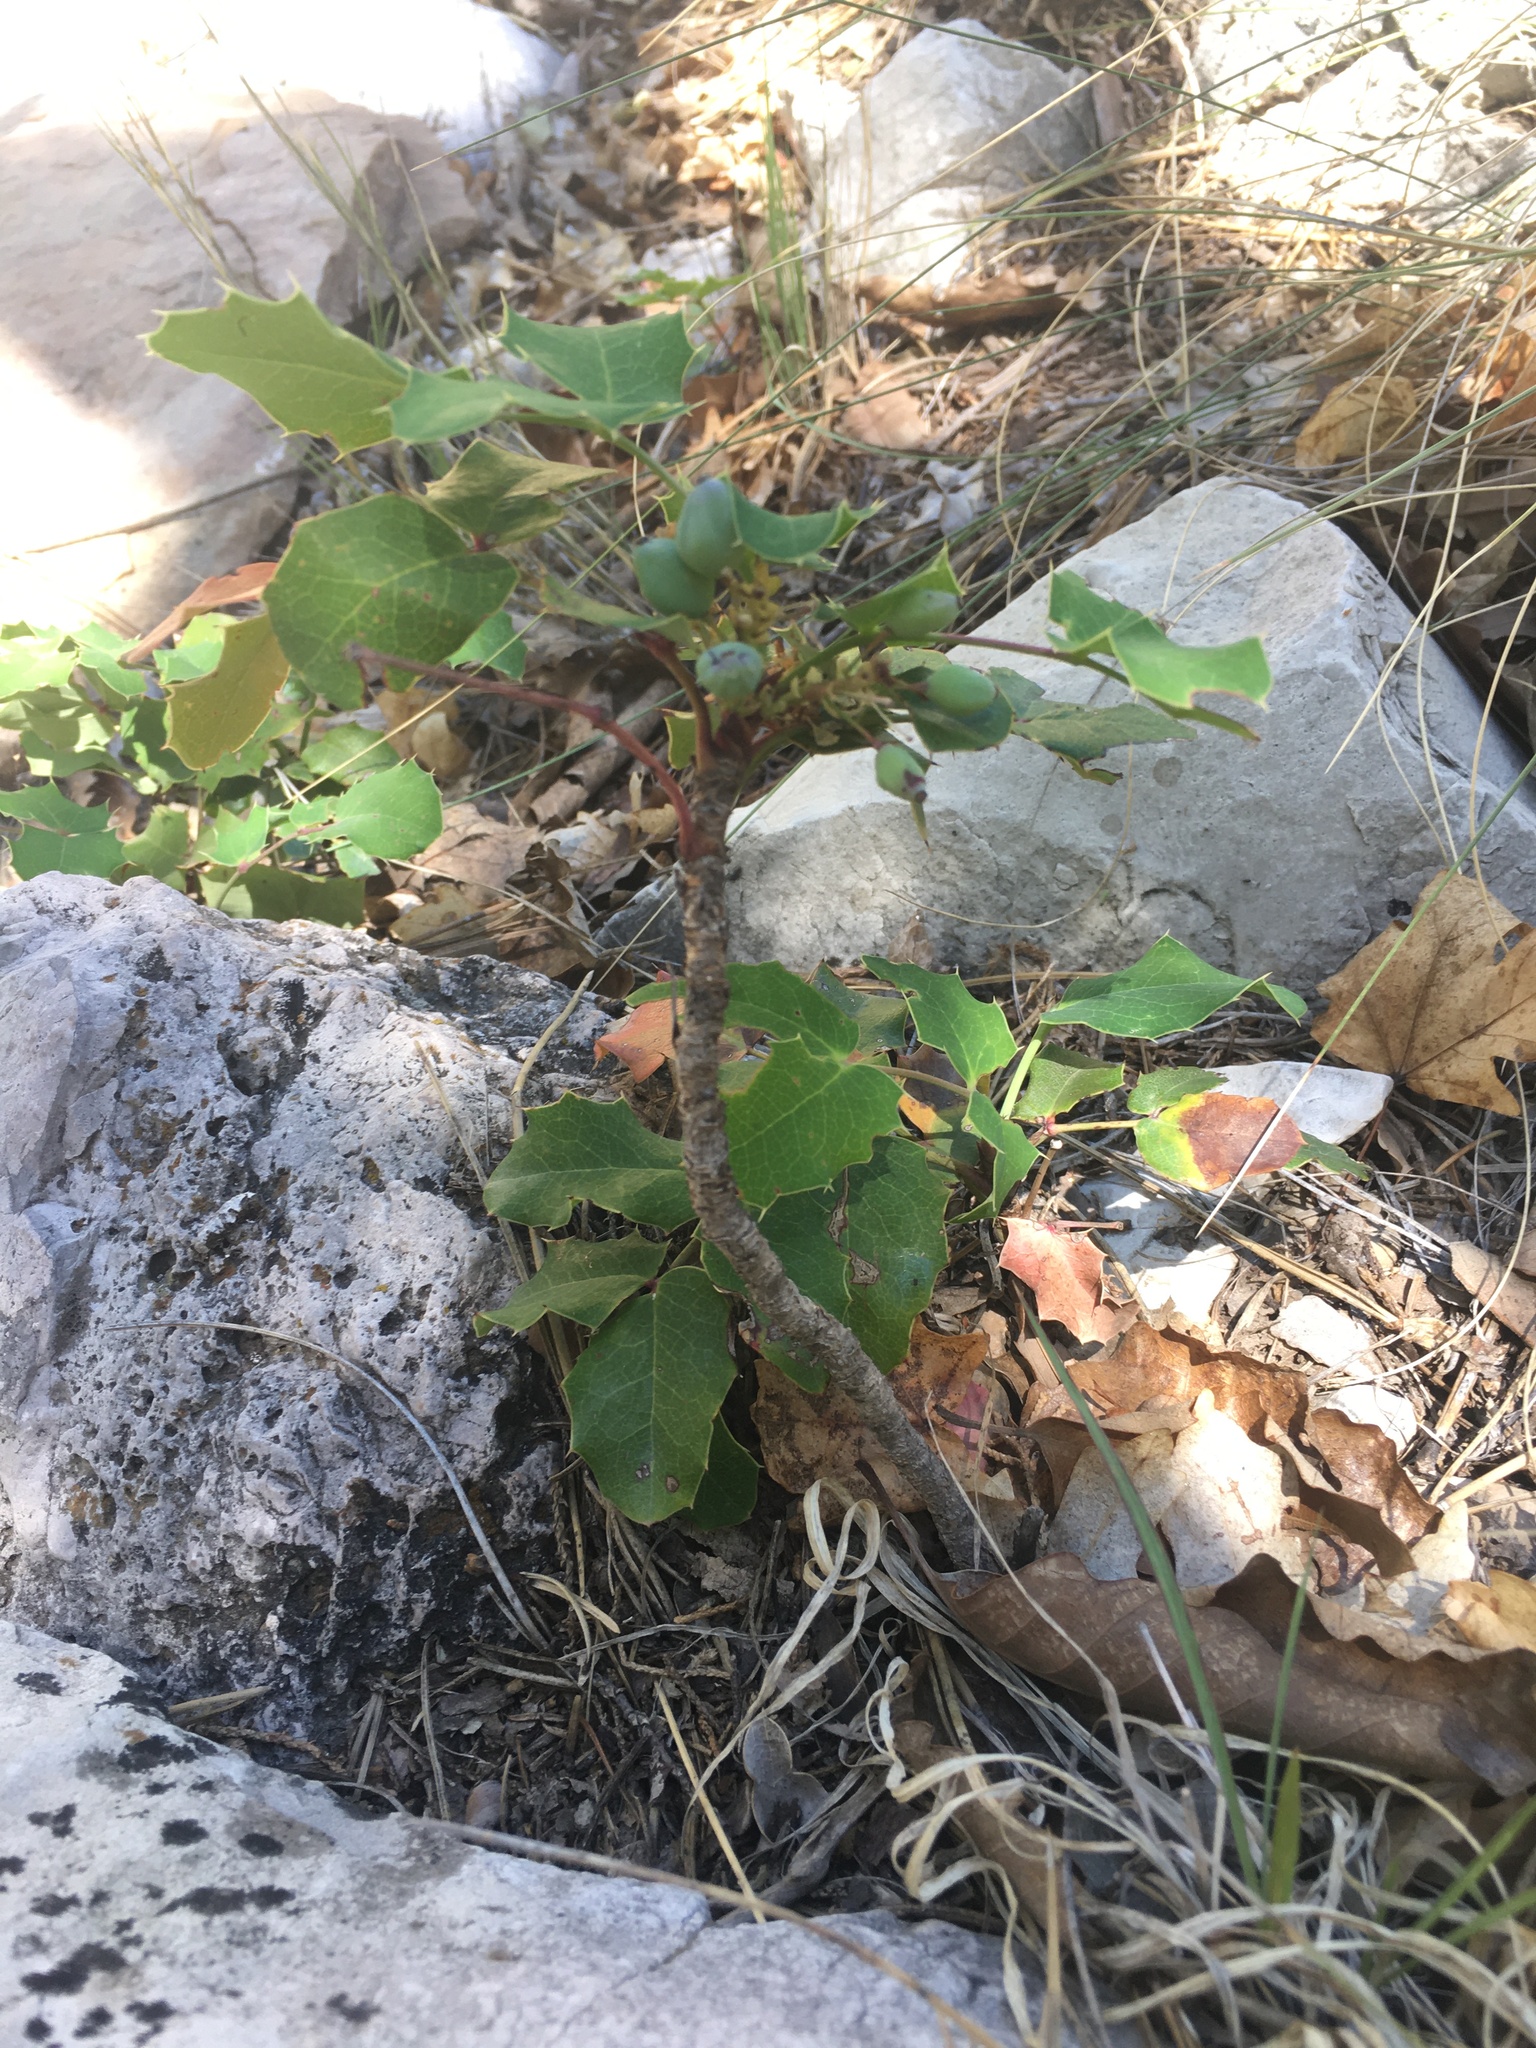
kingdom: Plantae
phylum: Tracheophyta
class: Magnoliopsida
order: Ranunculales
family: Berberidaceae
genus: Mahonia
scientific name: Mahonia repens
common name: Creeping oregon-grape
